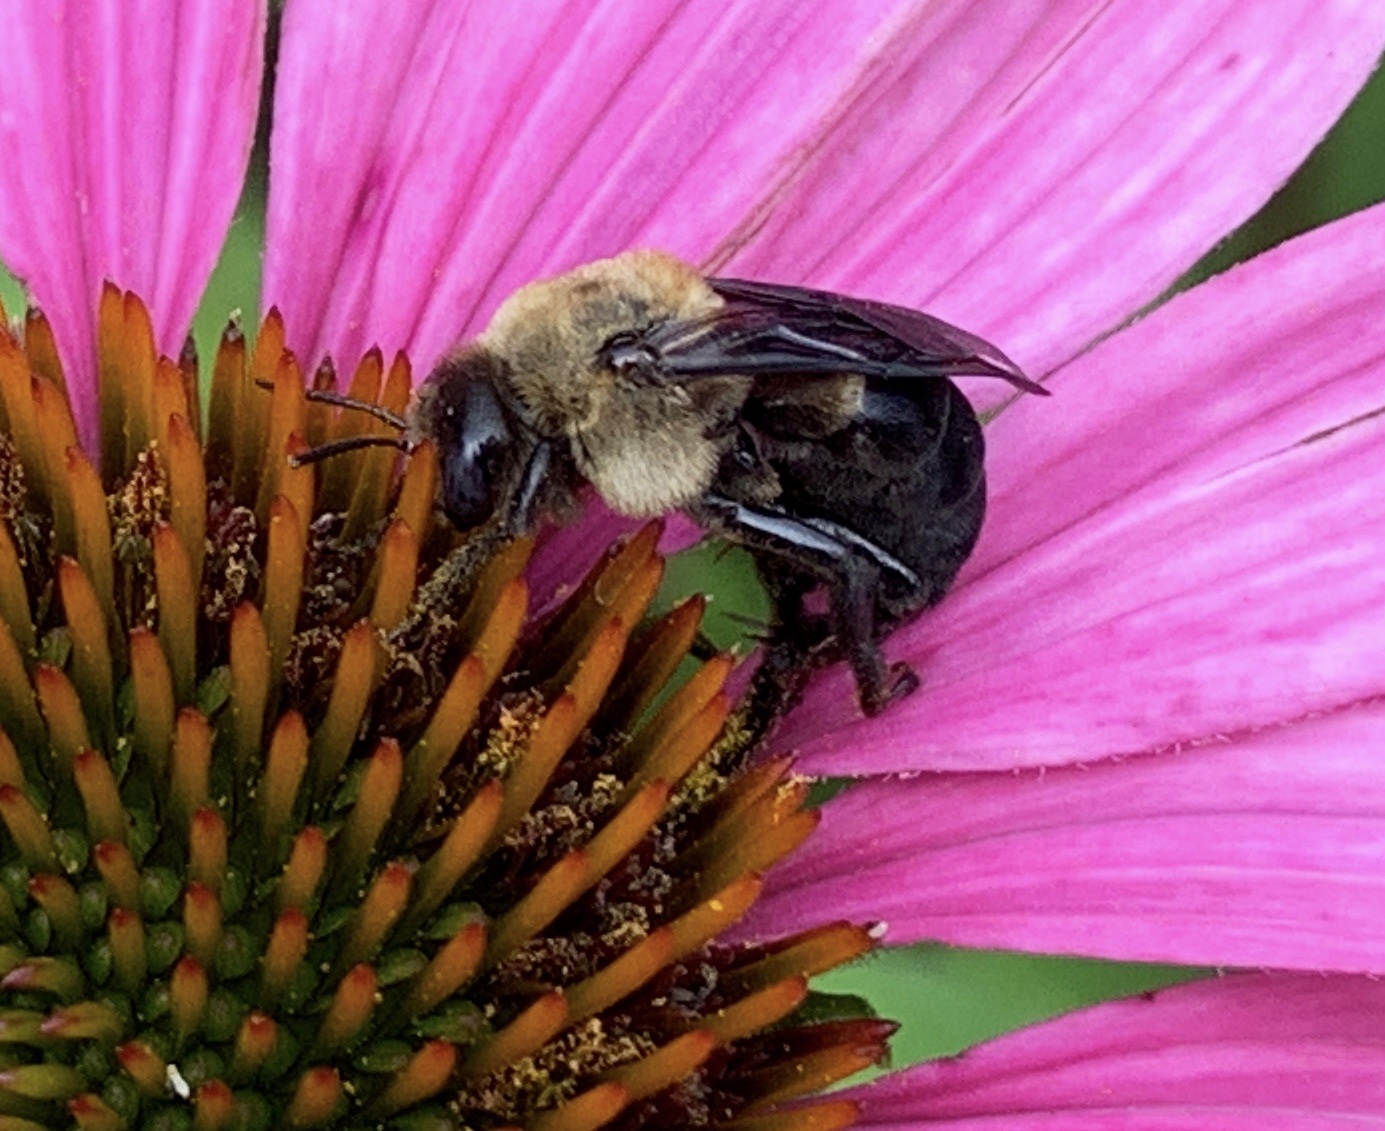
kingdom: Animalia
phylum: Arthropoda
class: Insecta
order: Hymenoptera
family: Apidae
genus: Ptilothrix
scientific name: Ptilothrix bombiformis
